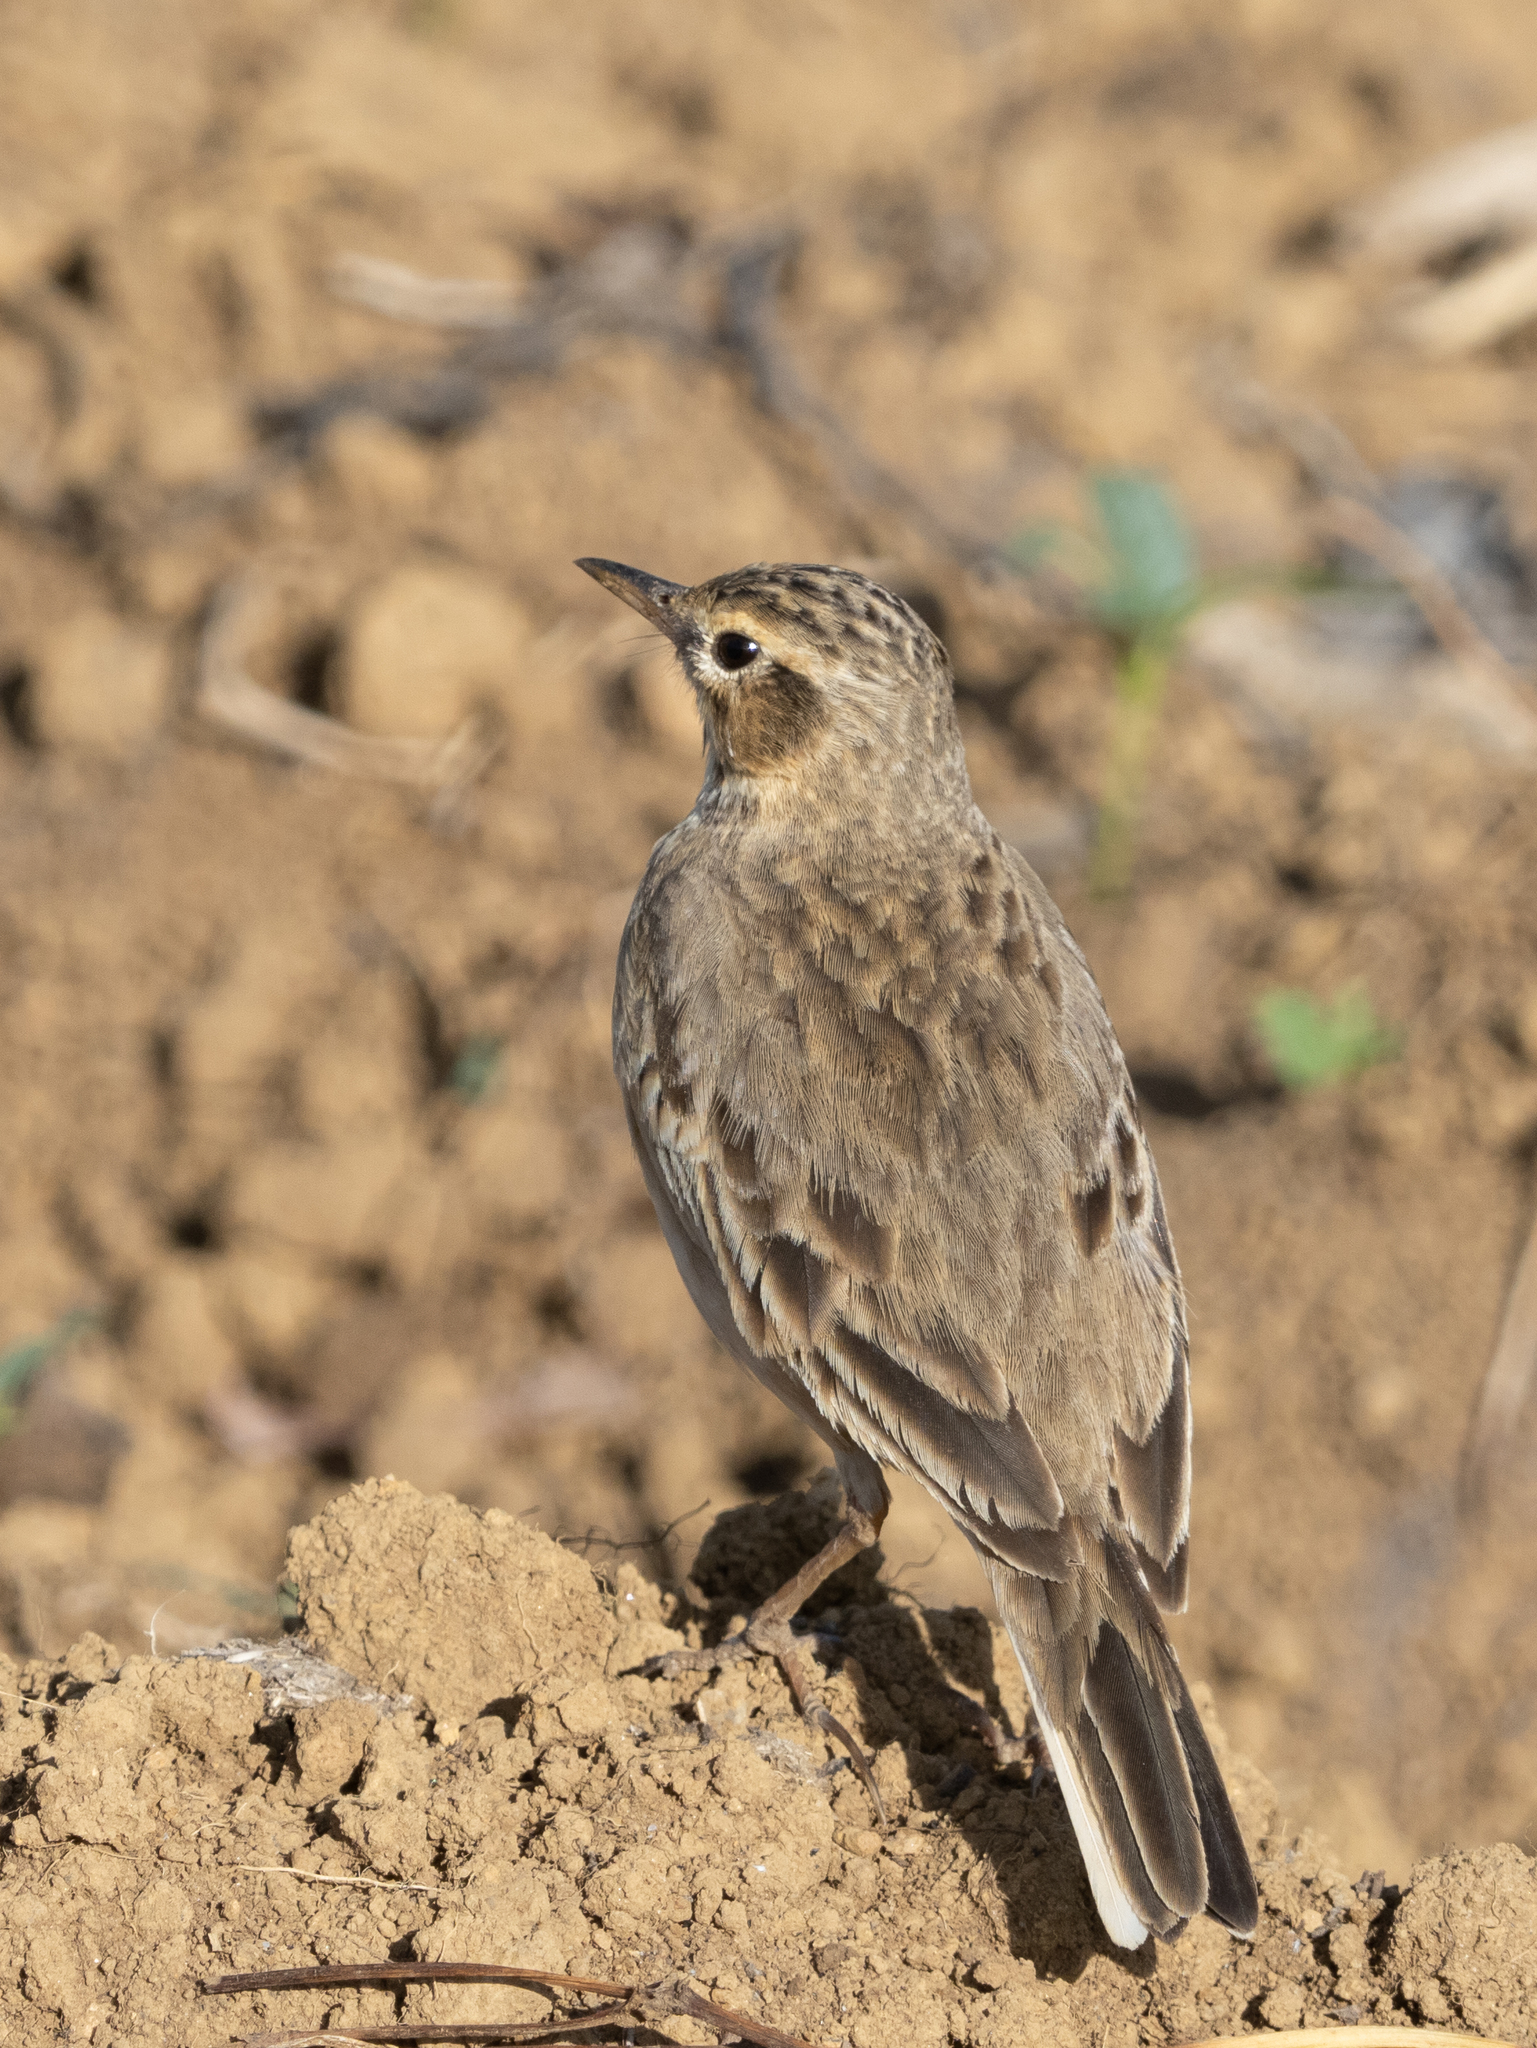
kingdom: Animalia
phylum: Chordata
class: Aves
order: Passeriformes
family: Motacillidae
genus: Anthus
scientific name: Anthus rufulus
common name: Paddyfield pipit
